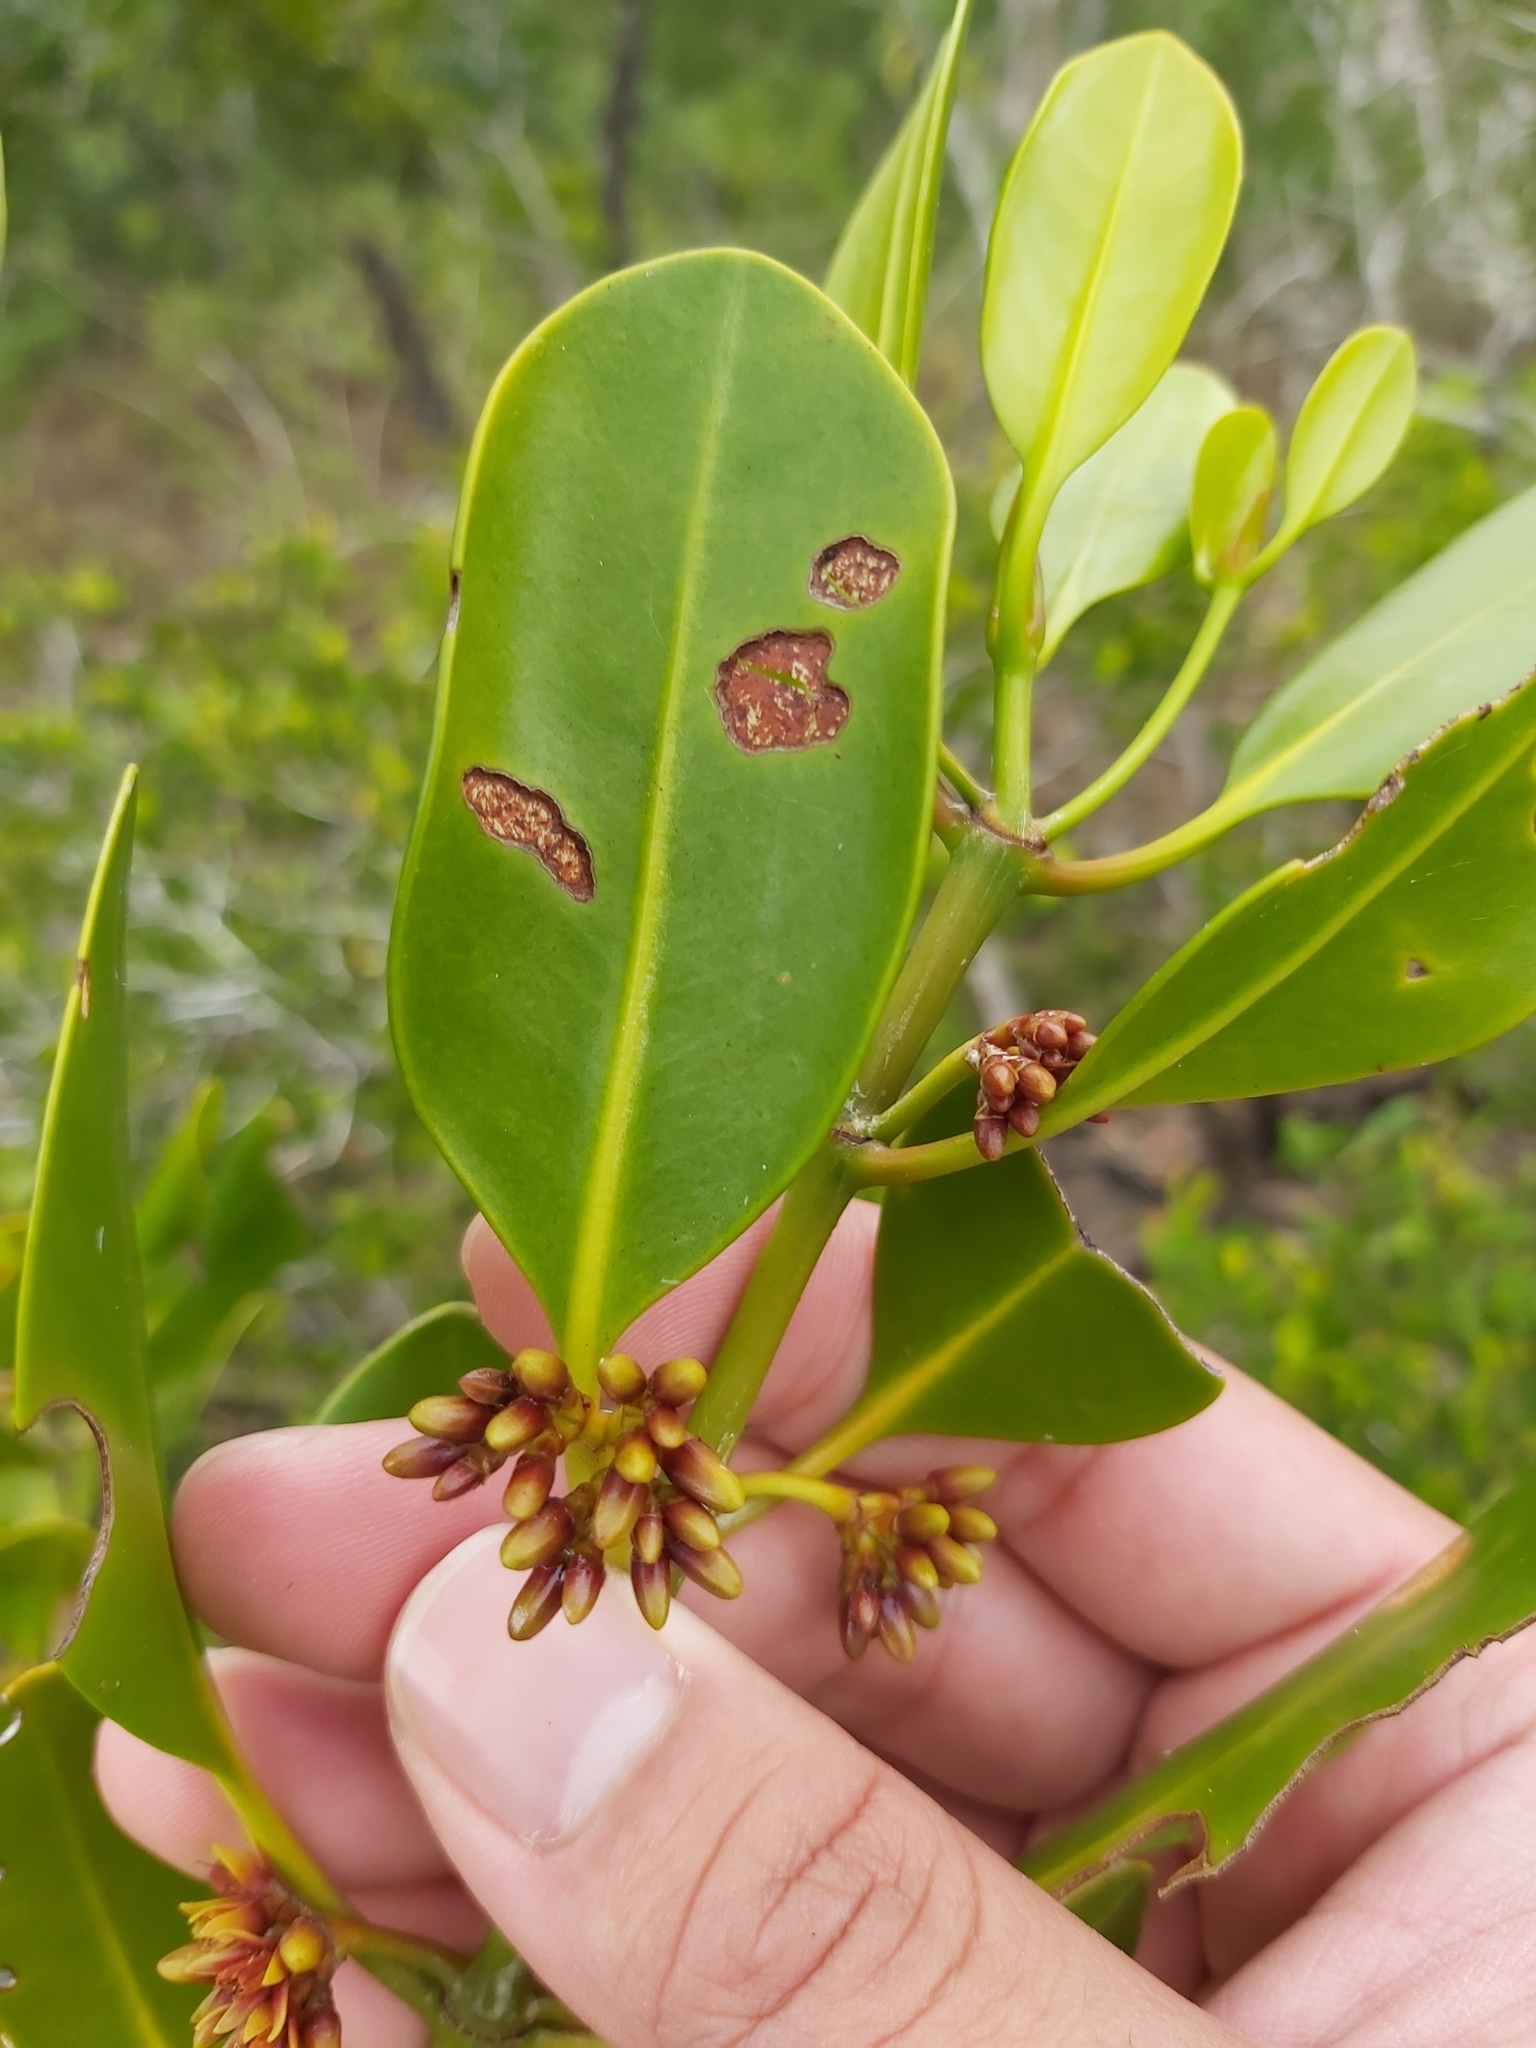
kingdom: Plantae
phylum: Tracheophyta
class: Magnoliopsida
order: Malpighiales
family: Rhizophoraceae
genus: Ceriops
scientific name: Ceriops australis
